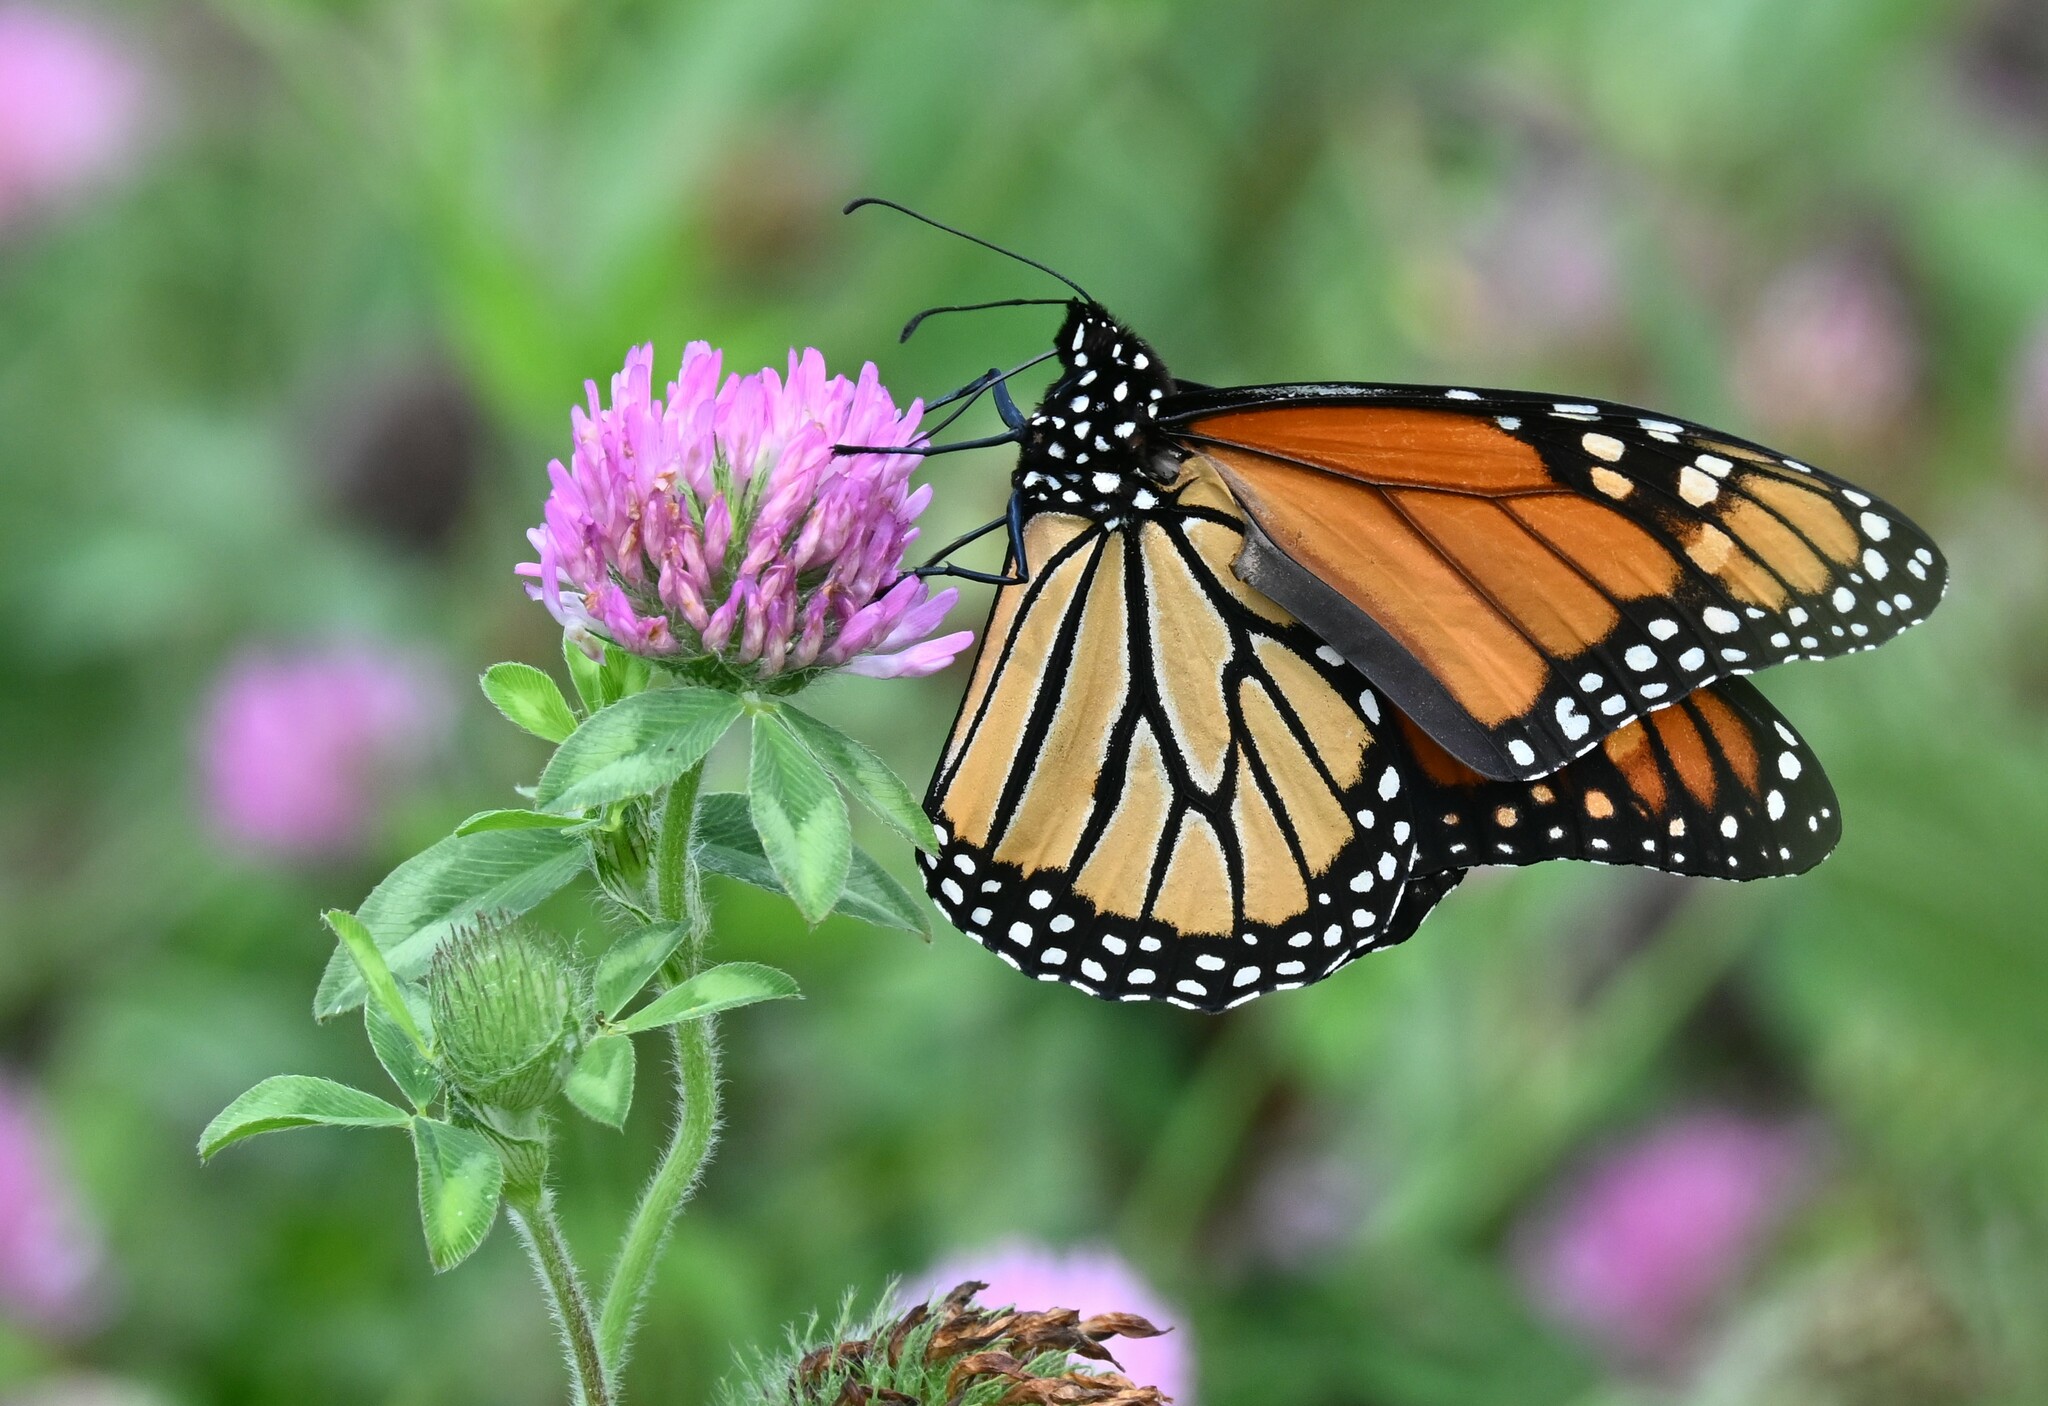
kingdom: Animalia
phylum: Arthropoda
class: Insecta
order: Lepidoptera
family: Nymphalidae
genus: Danaus
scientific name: Danaus plexippus
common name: Monarch
